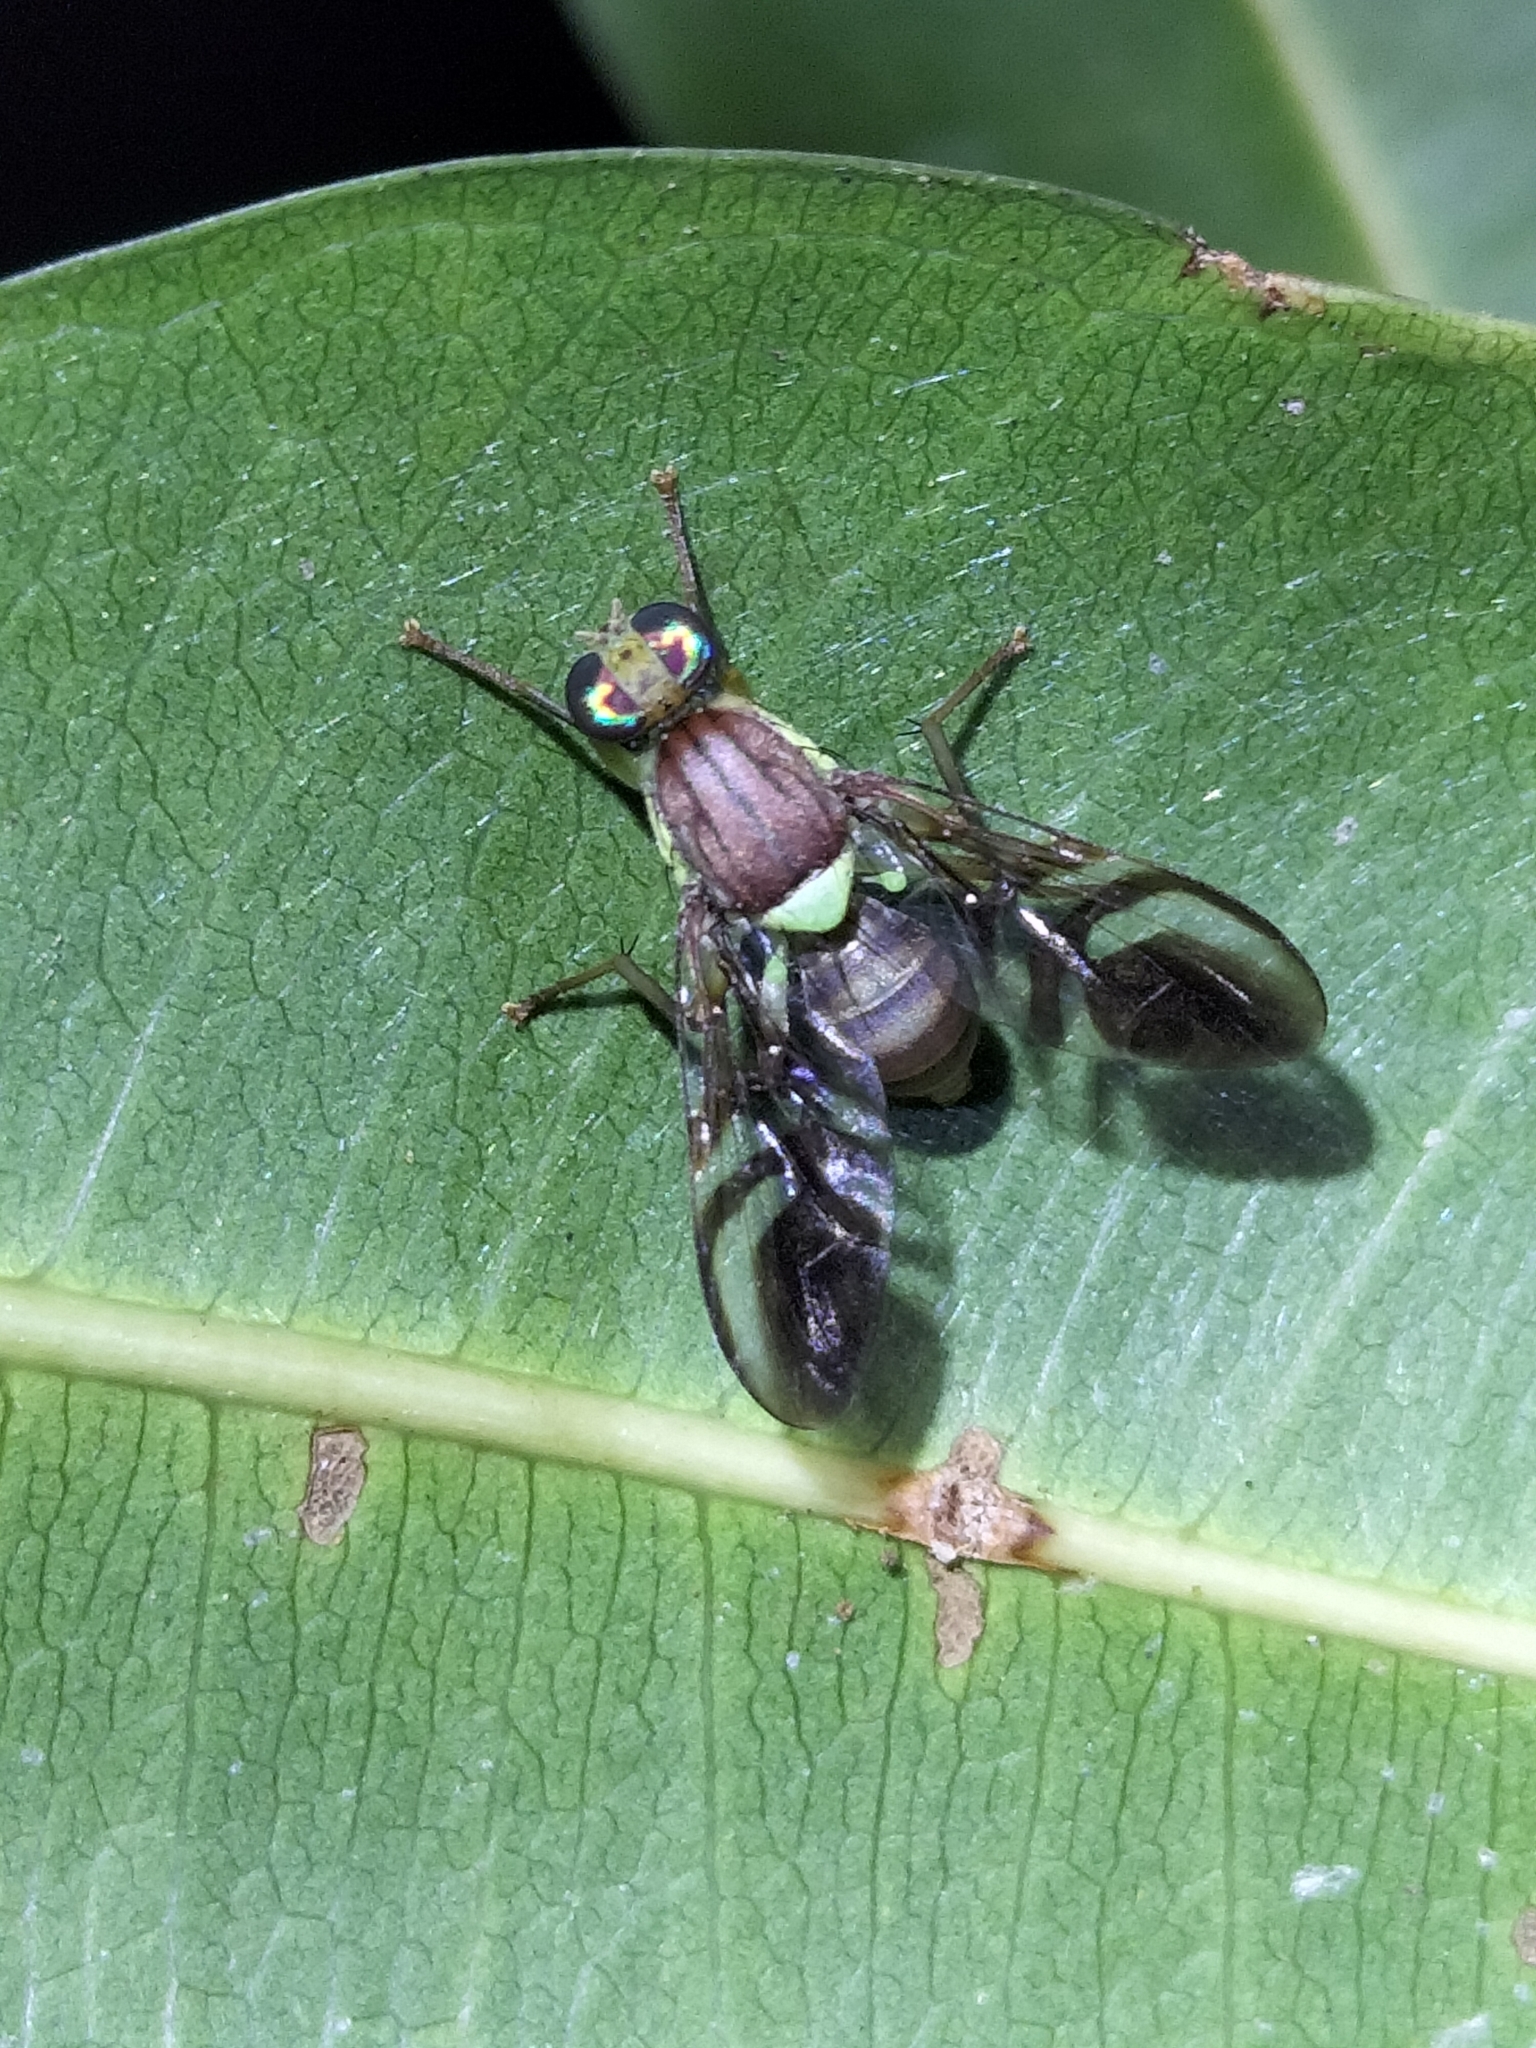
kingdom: Animalia
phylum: Arthropoda
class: Insecta
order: Diptera
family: Tephritidae
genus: Callistomyia
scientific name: Callistomyia horni
